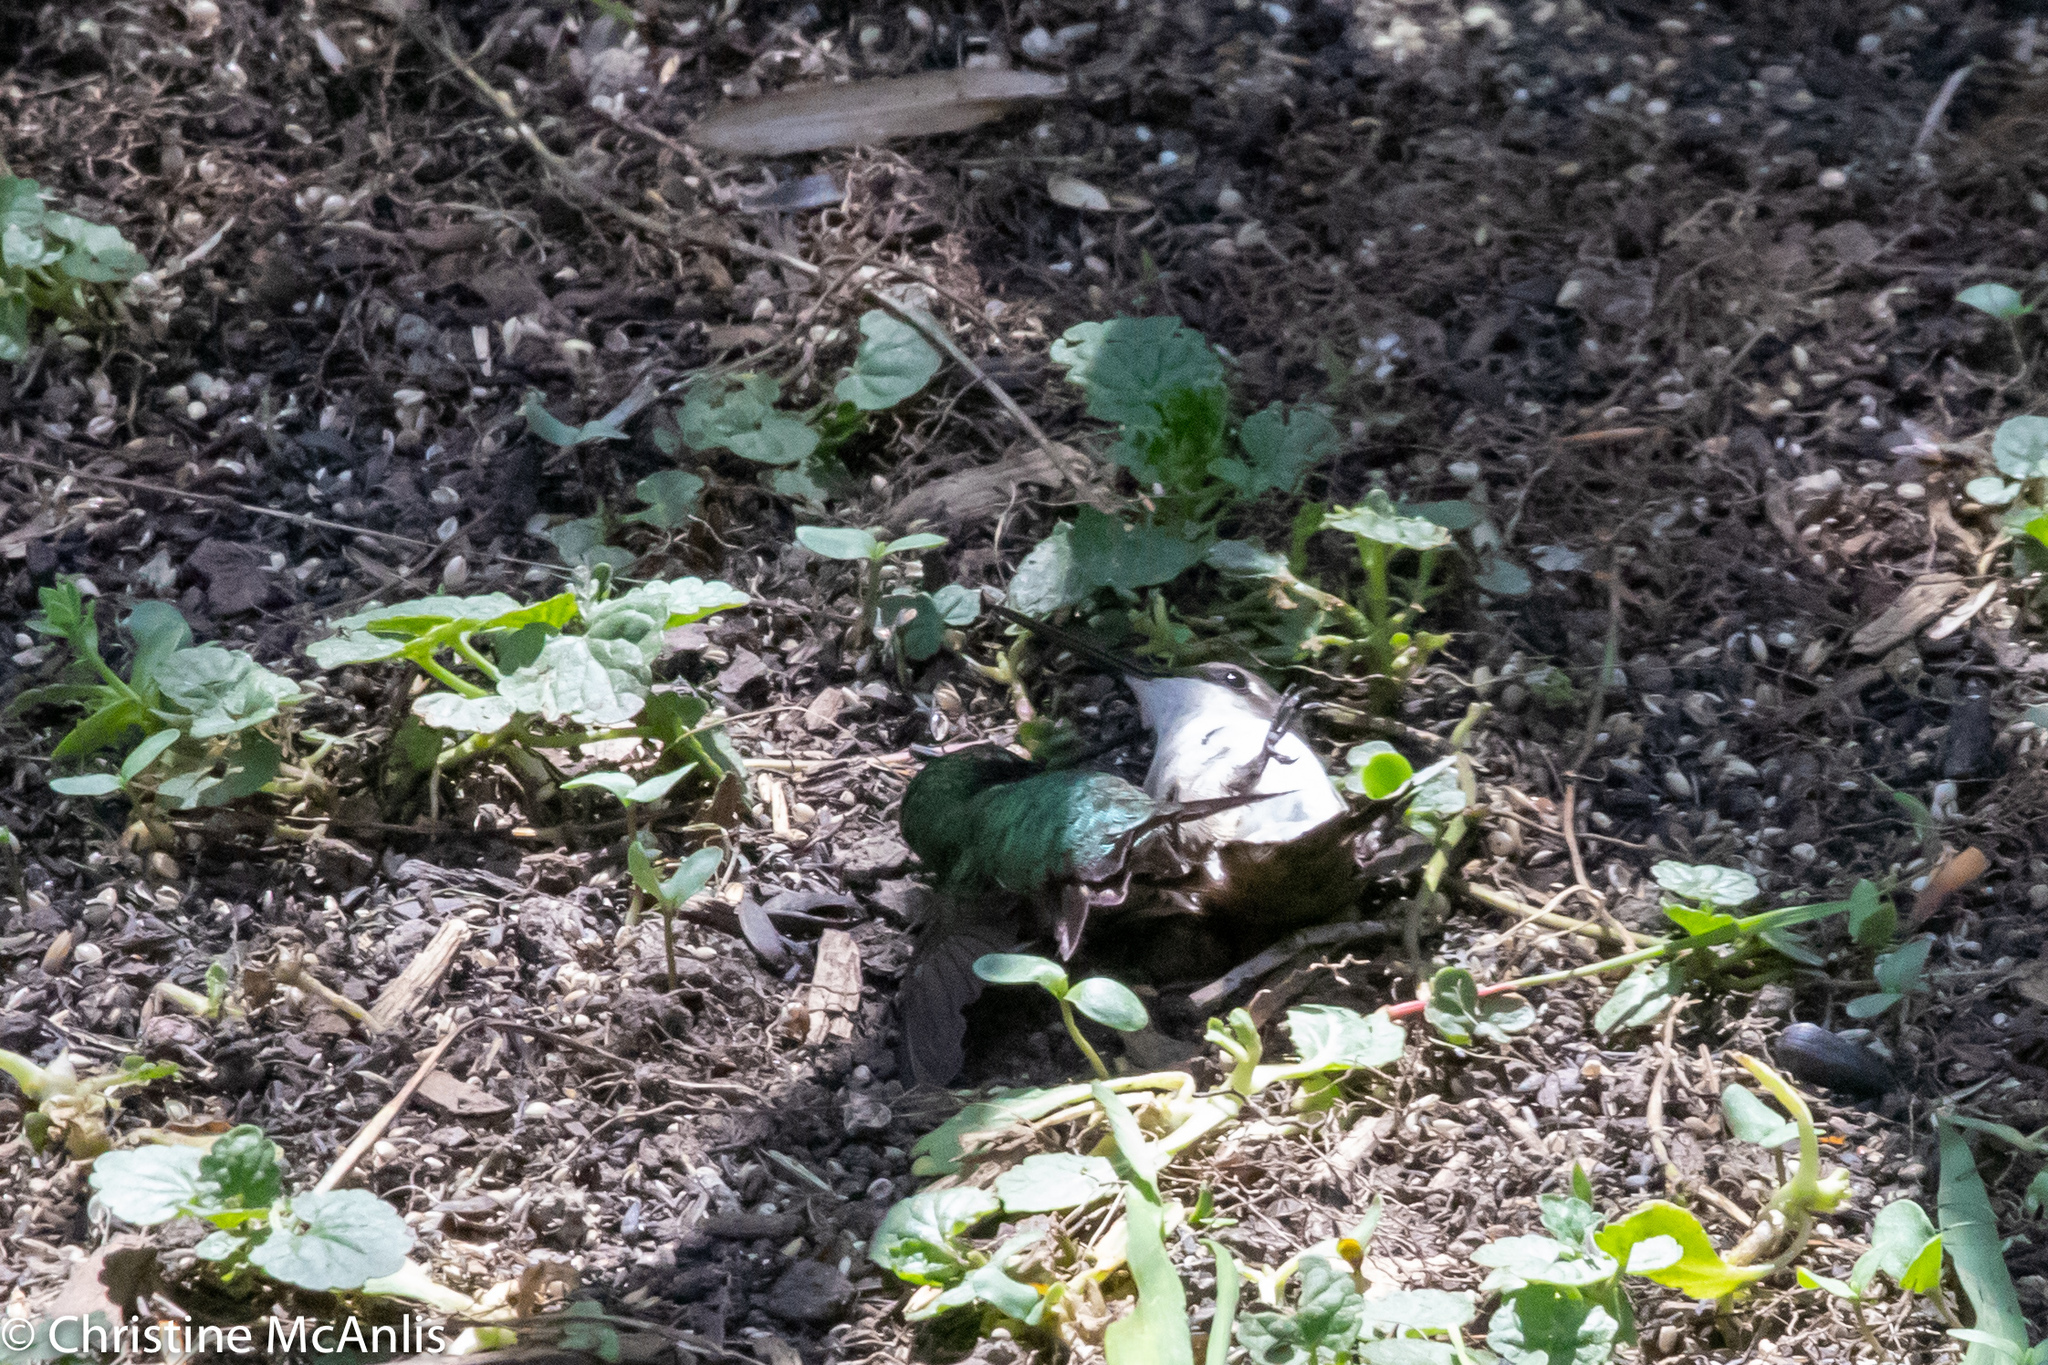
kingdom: Animalia
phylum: Chordata
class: Aves
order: Apodiformes
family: Trochilidae
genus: Archilochus
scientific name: Archilochus colubris
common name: Ruby-throated hummingbird
